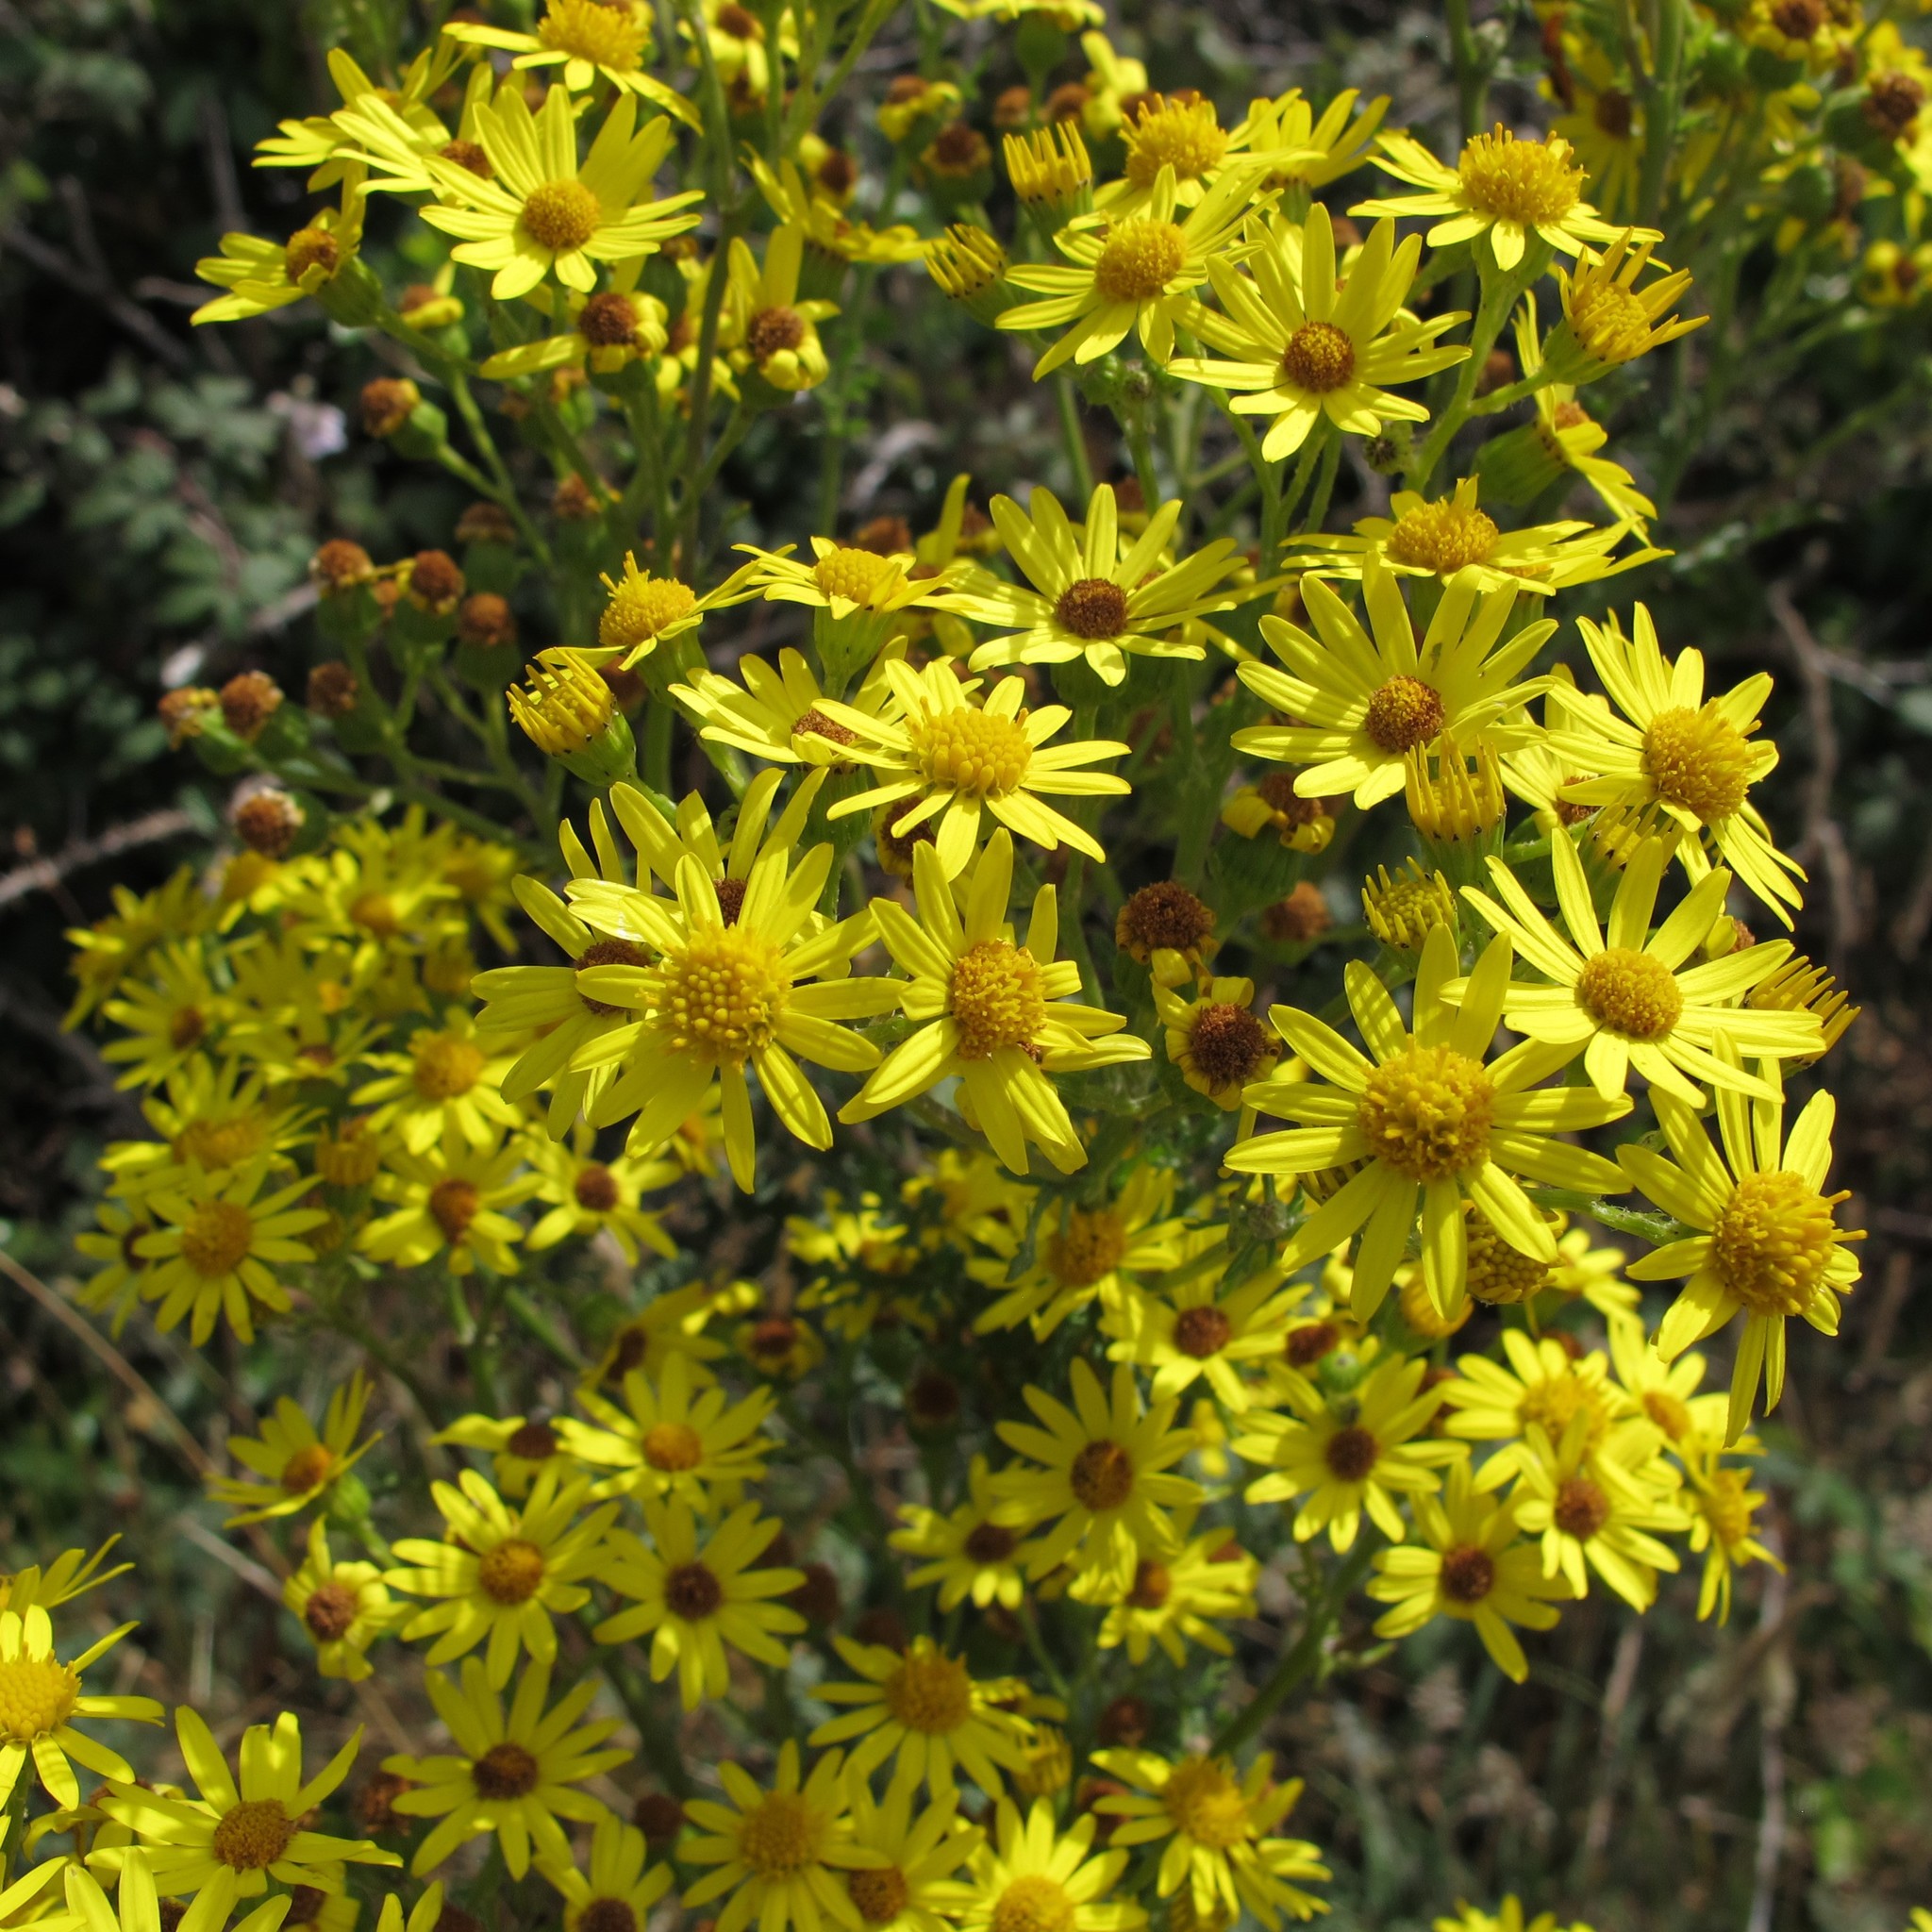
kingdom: Plantae
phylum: Tracheophyta
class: Magnoliopsida
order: Asterales
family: Asteraceae
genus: Jacobaea
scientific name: Jacobaea vulgaris
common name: Stinking willie
